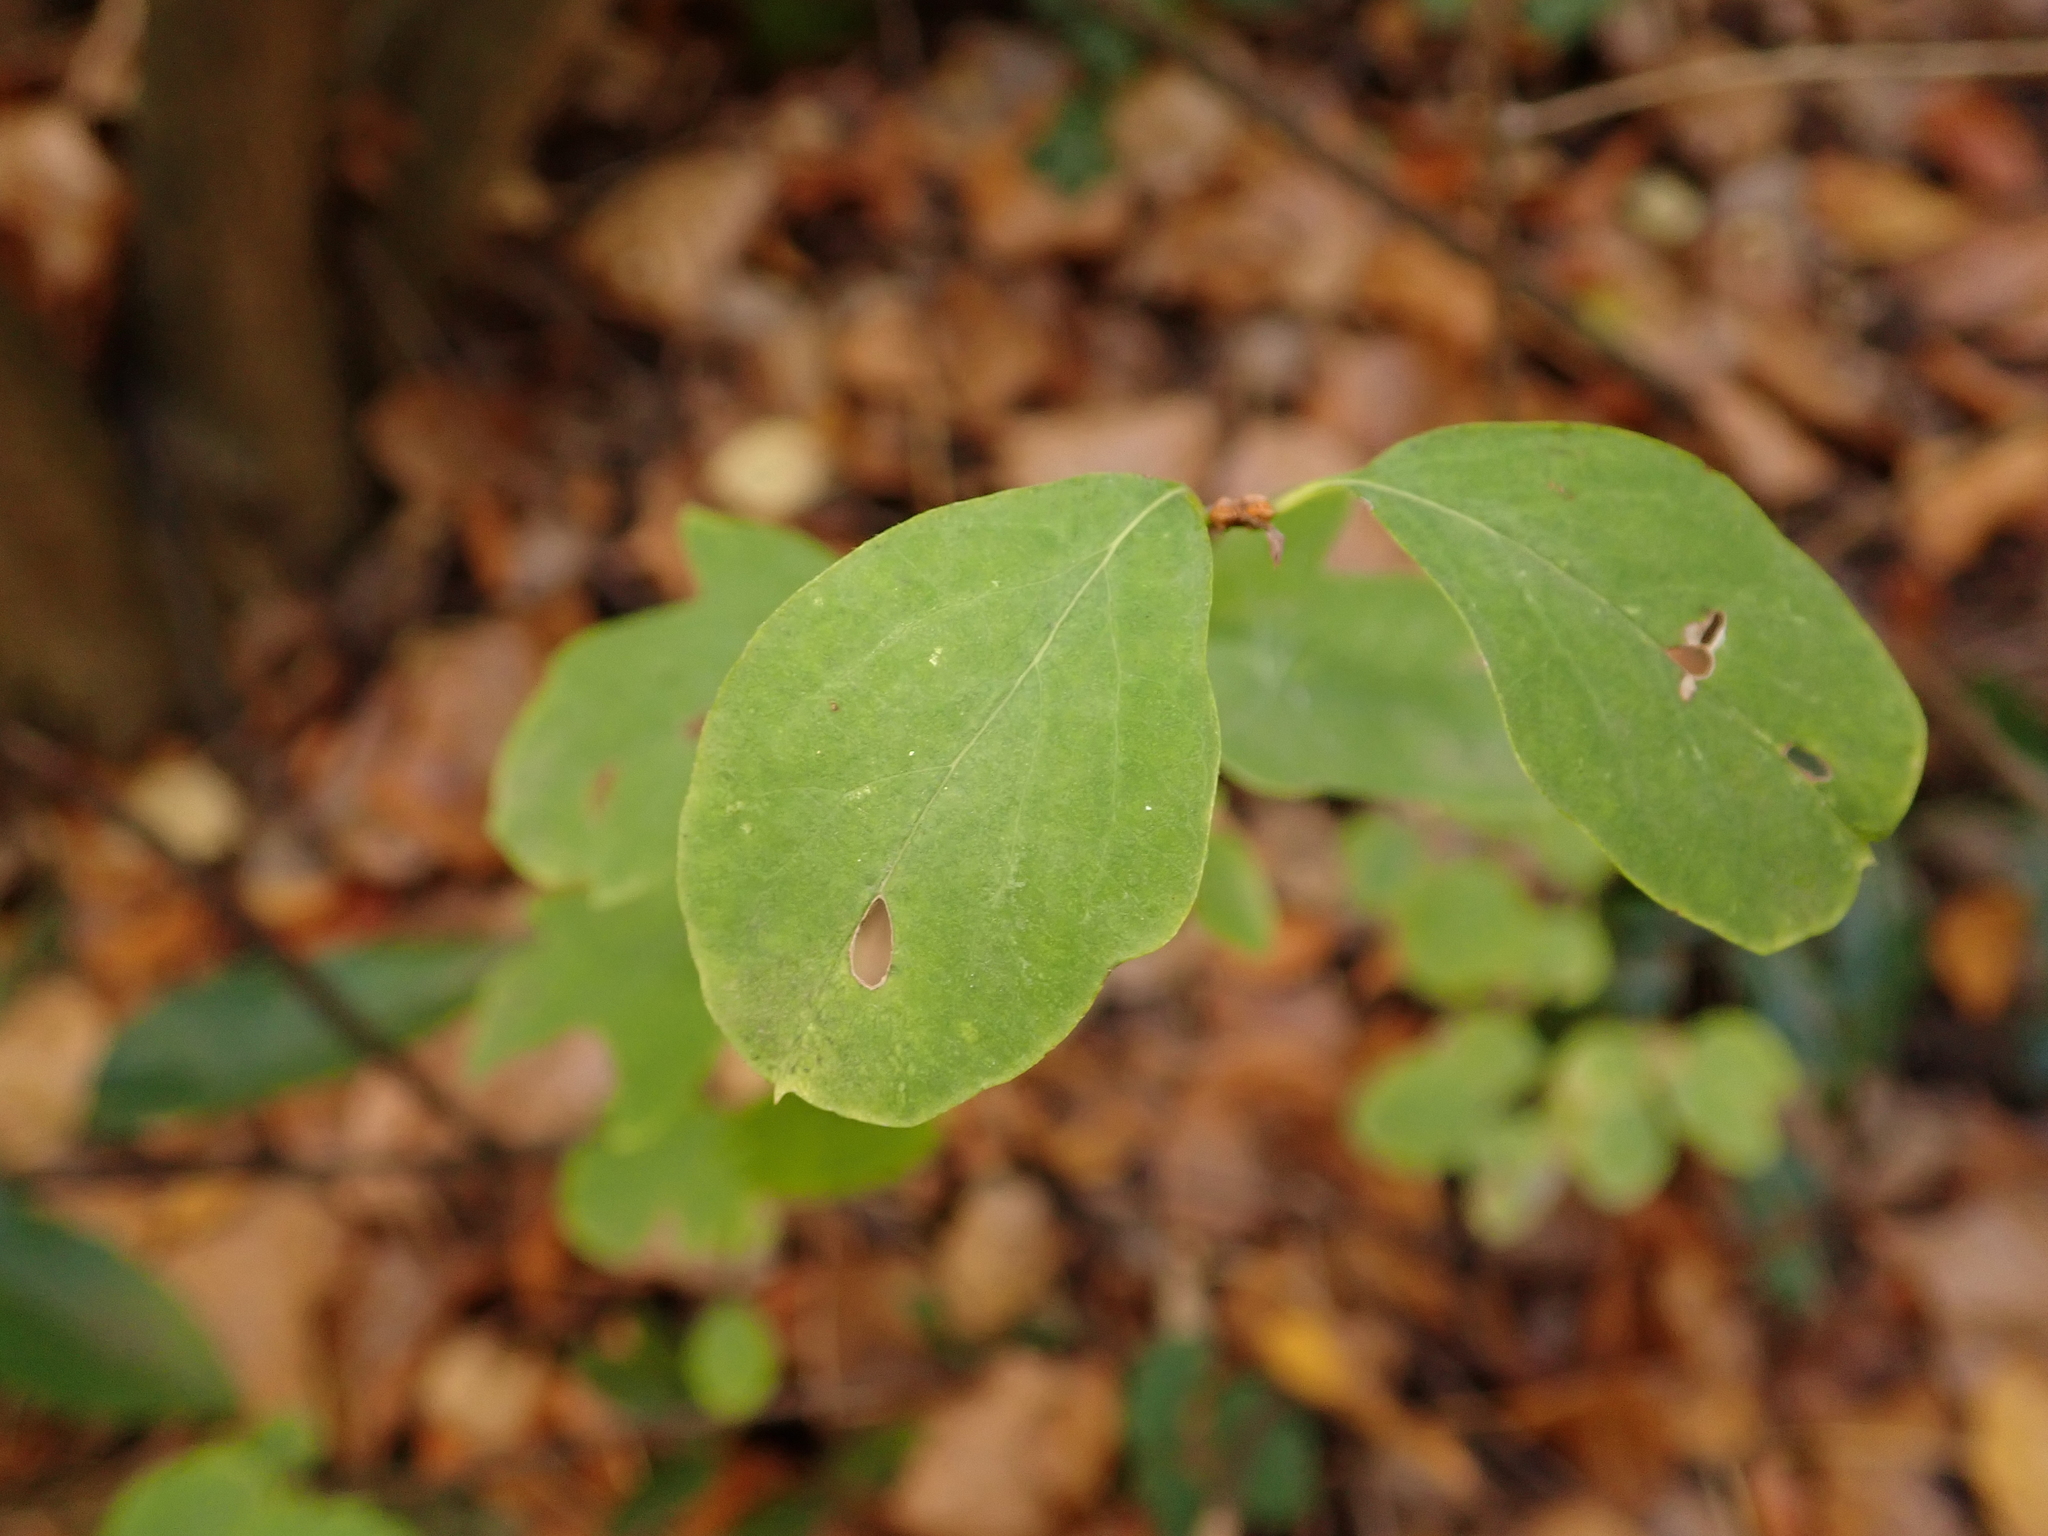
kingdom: Plantae
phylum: Tracheophyta
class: Magnoliopsida
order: Dipsacales
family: Caprifoliaceae
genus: Symphoricarpos
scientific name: Symphoricarpos albus
